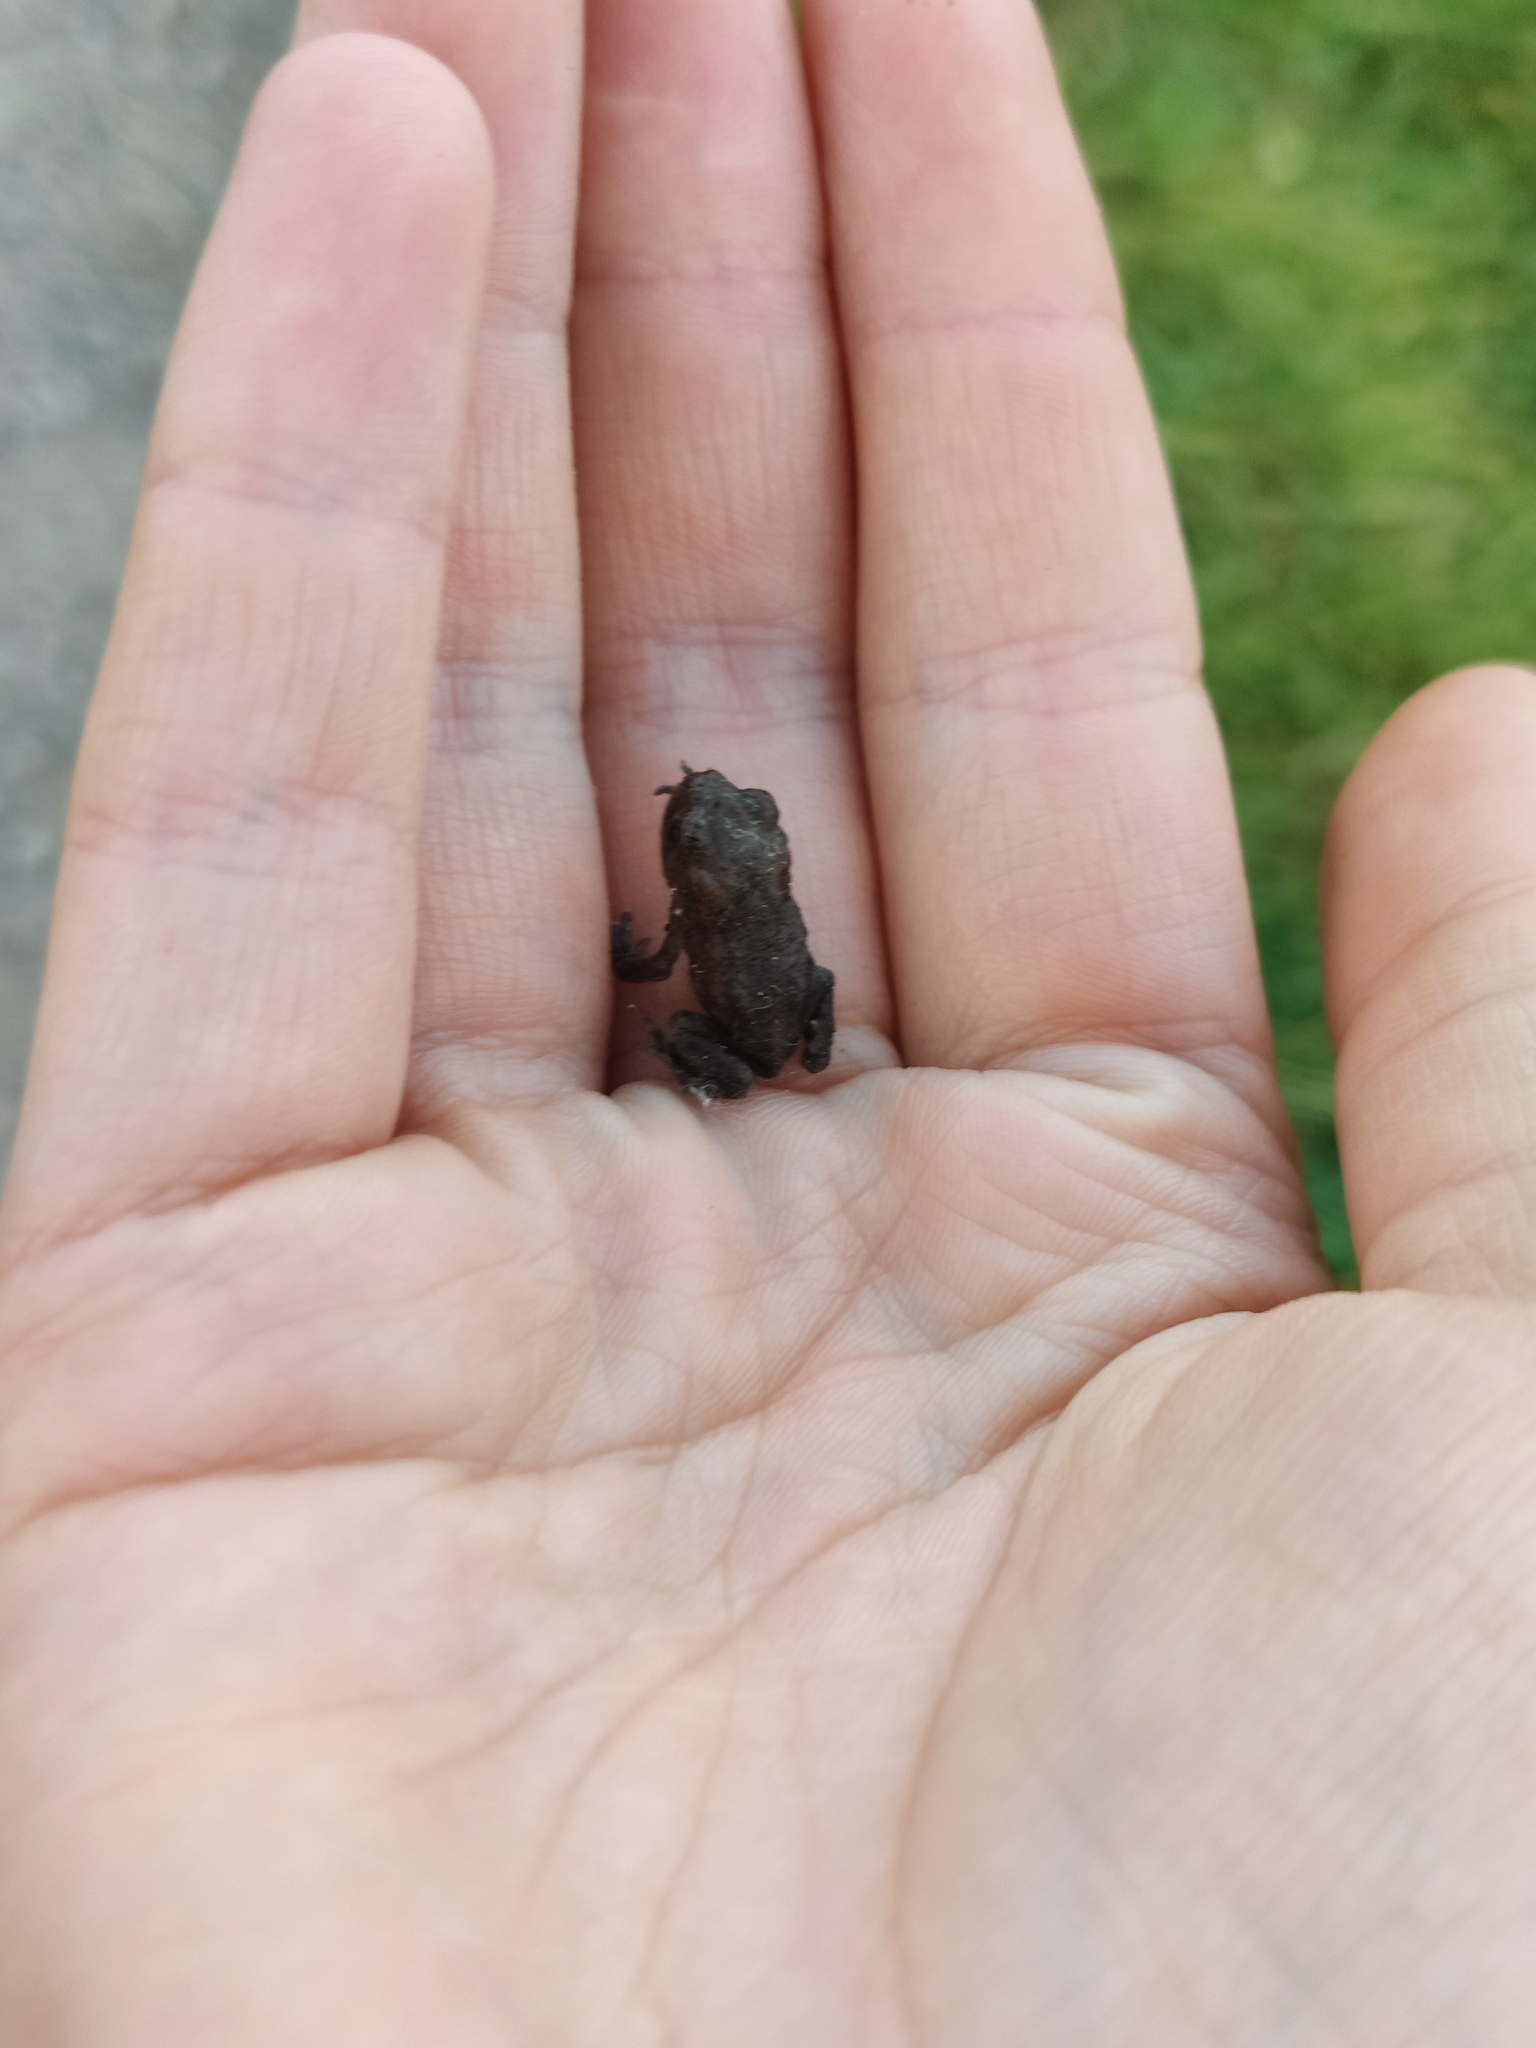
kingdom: Animalia
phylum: Chordata
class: Amphibia
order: Anura
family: Bufonidae
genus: Bufo
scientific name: Bufo bufo
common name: Common toad
